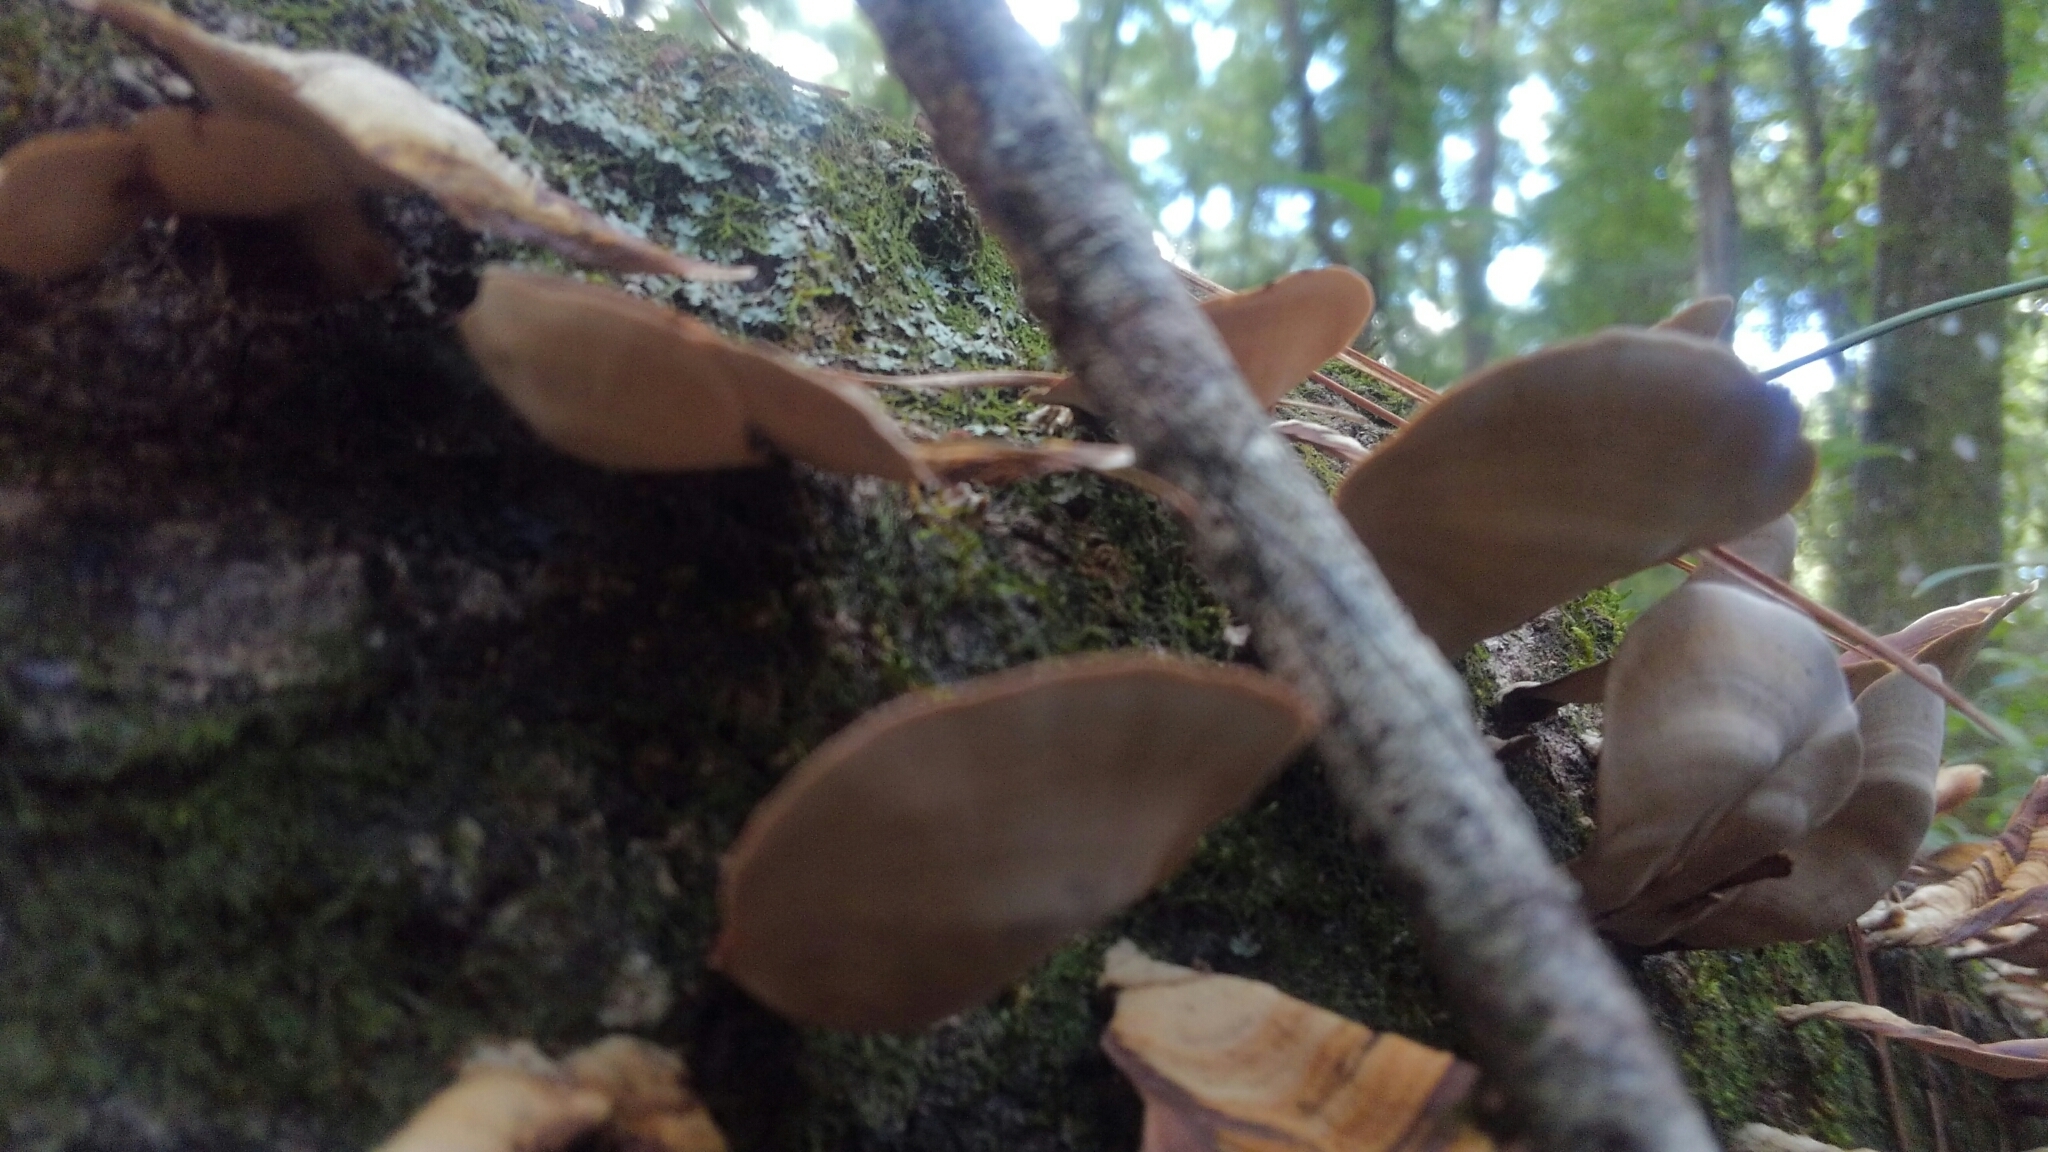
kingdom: Fungi
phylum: Basidiomycota
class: Agaricomycetes
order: Russulales
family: Stereaceae
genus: Stereum
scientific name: Stereum ostrea
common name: False turkeytail
